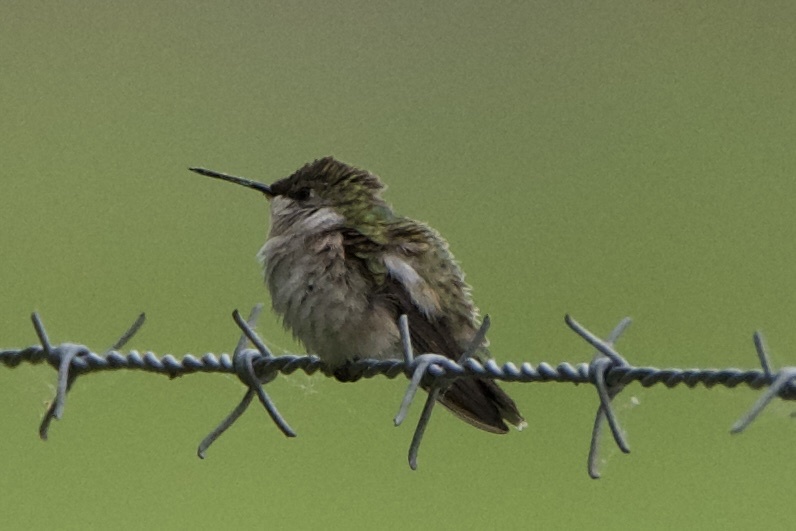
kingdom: Animalia
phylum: Chordata
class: Aves
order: Apodiformes
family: Trochilidae
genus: Archilochus
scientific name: Archilochus colubris
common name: Ruby-throated hummingbird
